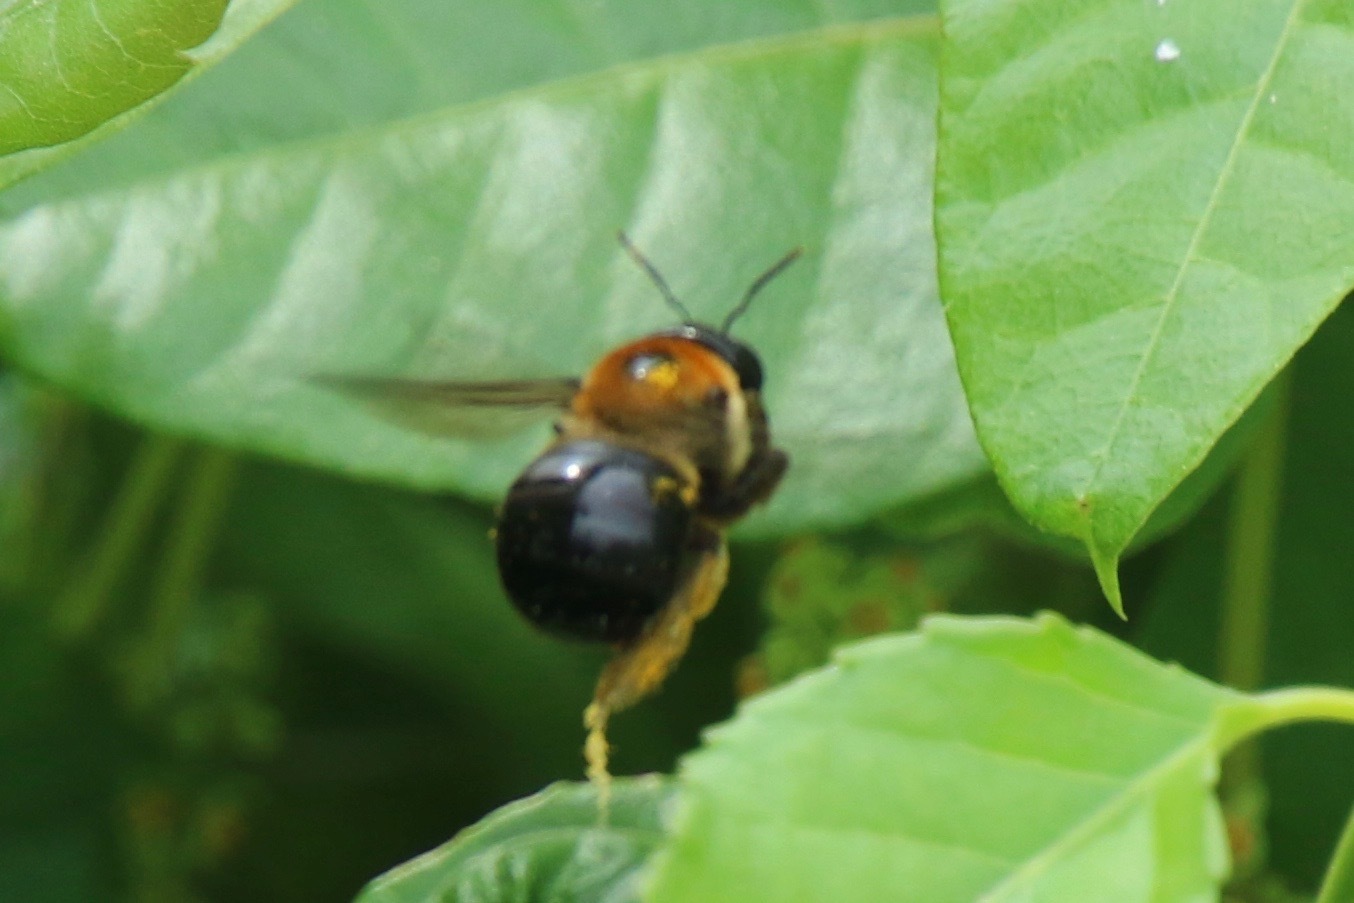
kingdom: Animalia
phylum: Arthropoda
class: Insecta
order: Hymenoptera
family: Apidae
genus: Xylocopa
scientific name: Xylocopa virginica
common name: Carpenter bee
